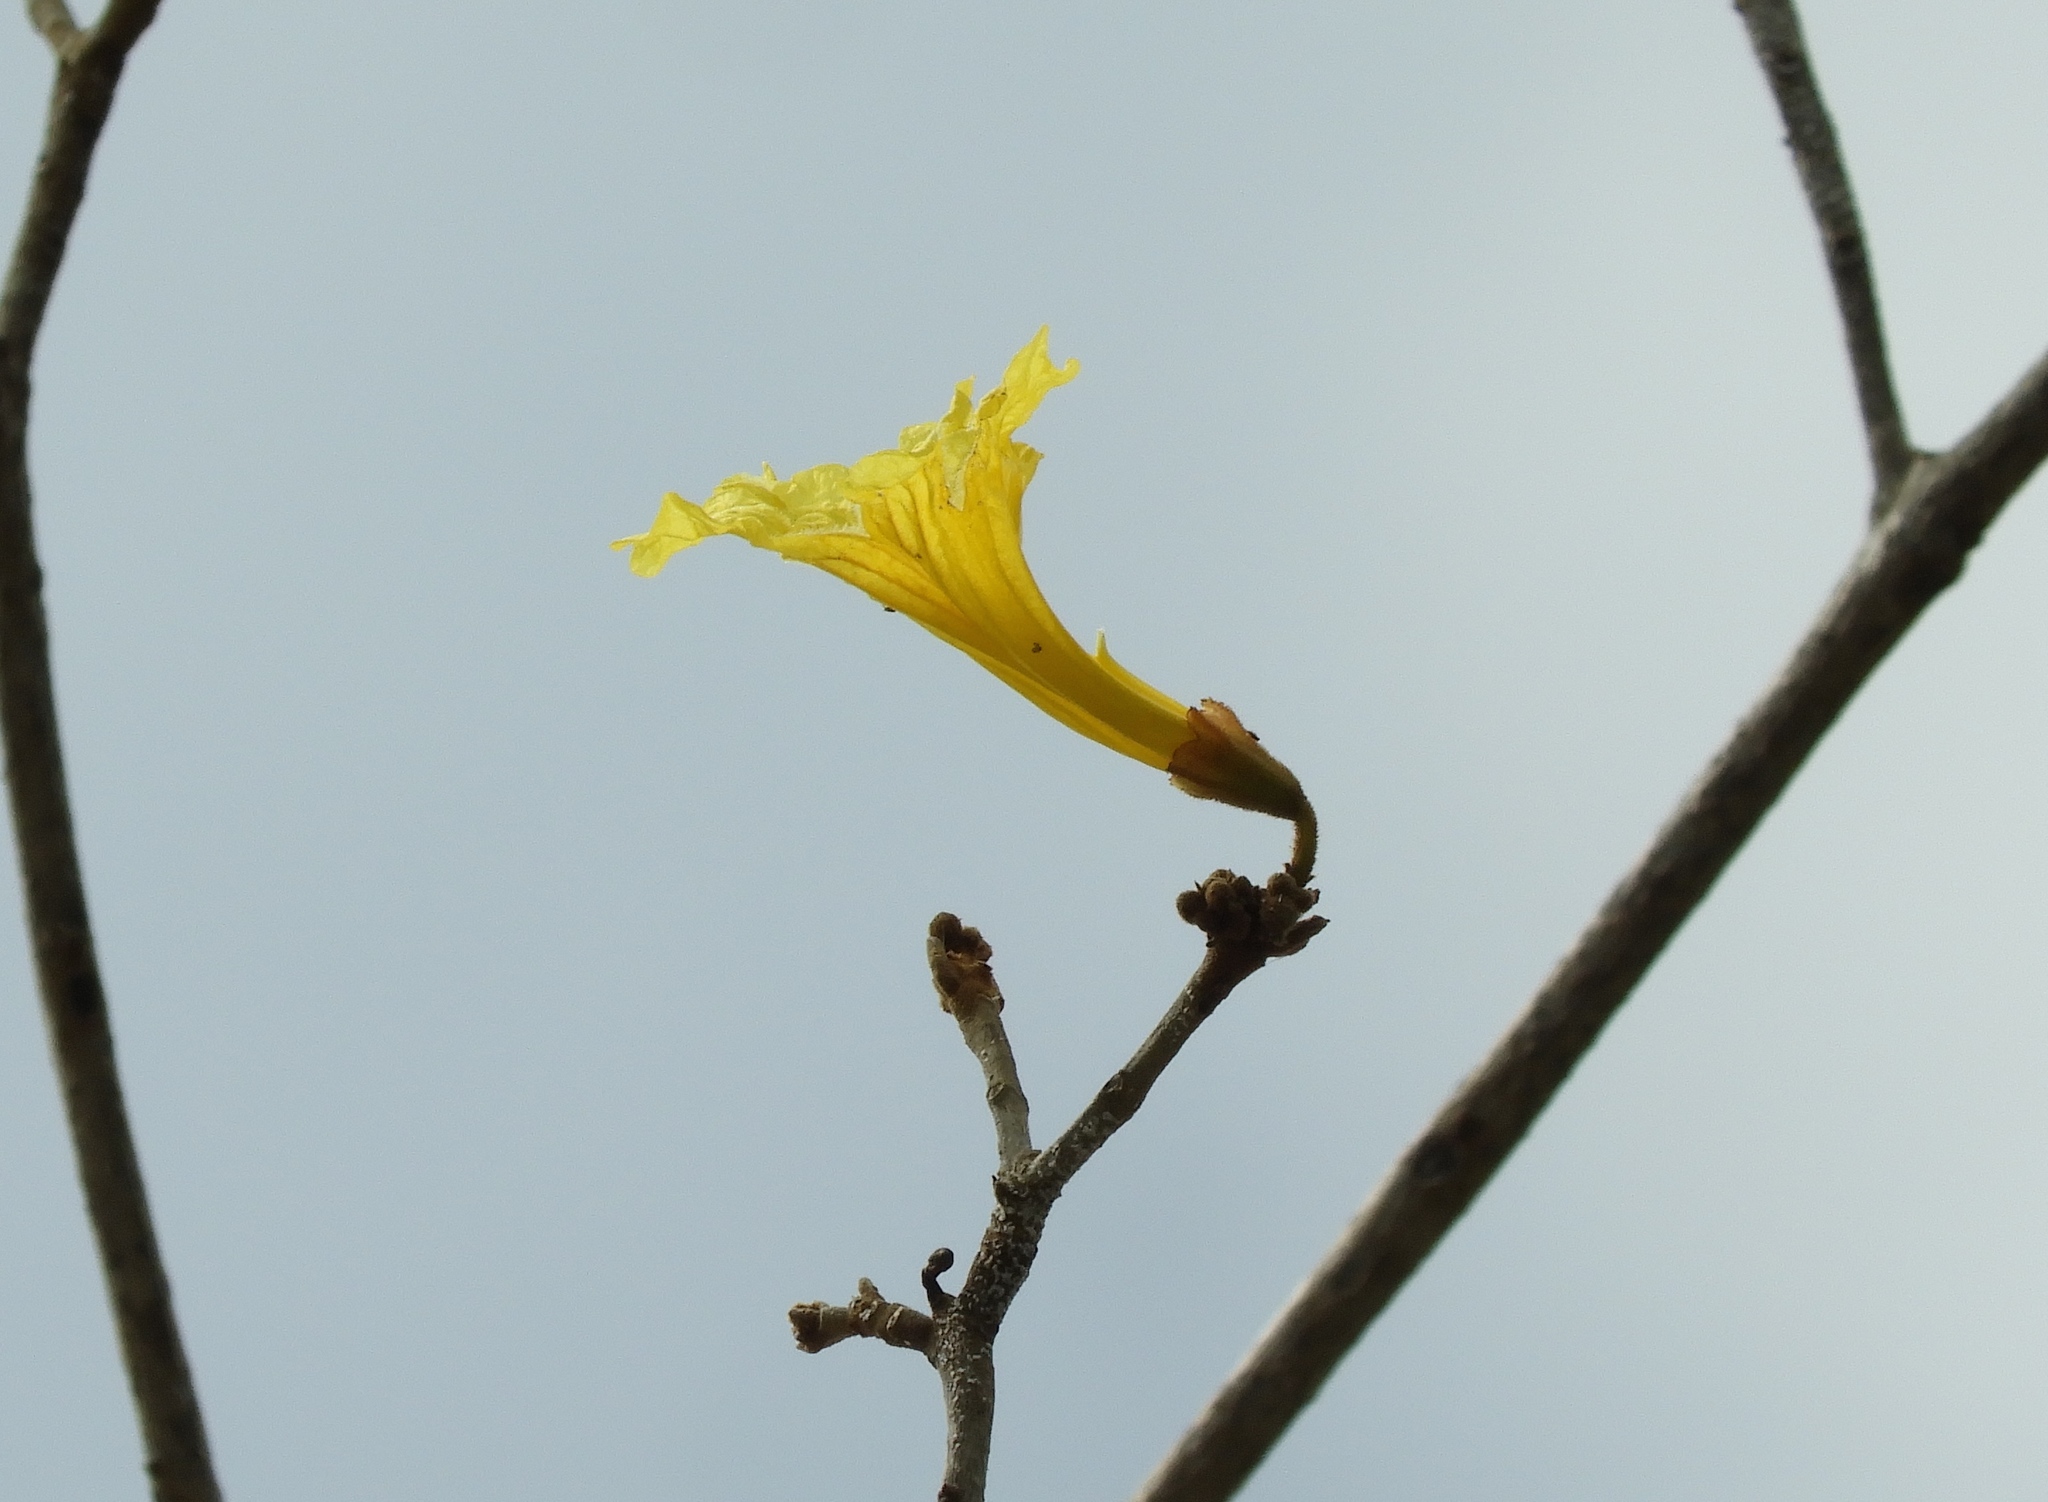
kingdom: Plantae
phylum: Tracheophyta
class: Magnoliopsida
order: Lamiales
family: Bignoniaceae
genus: Handroanthus
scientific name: Handroanthus chrysanthus
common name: Trumpet trees
